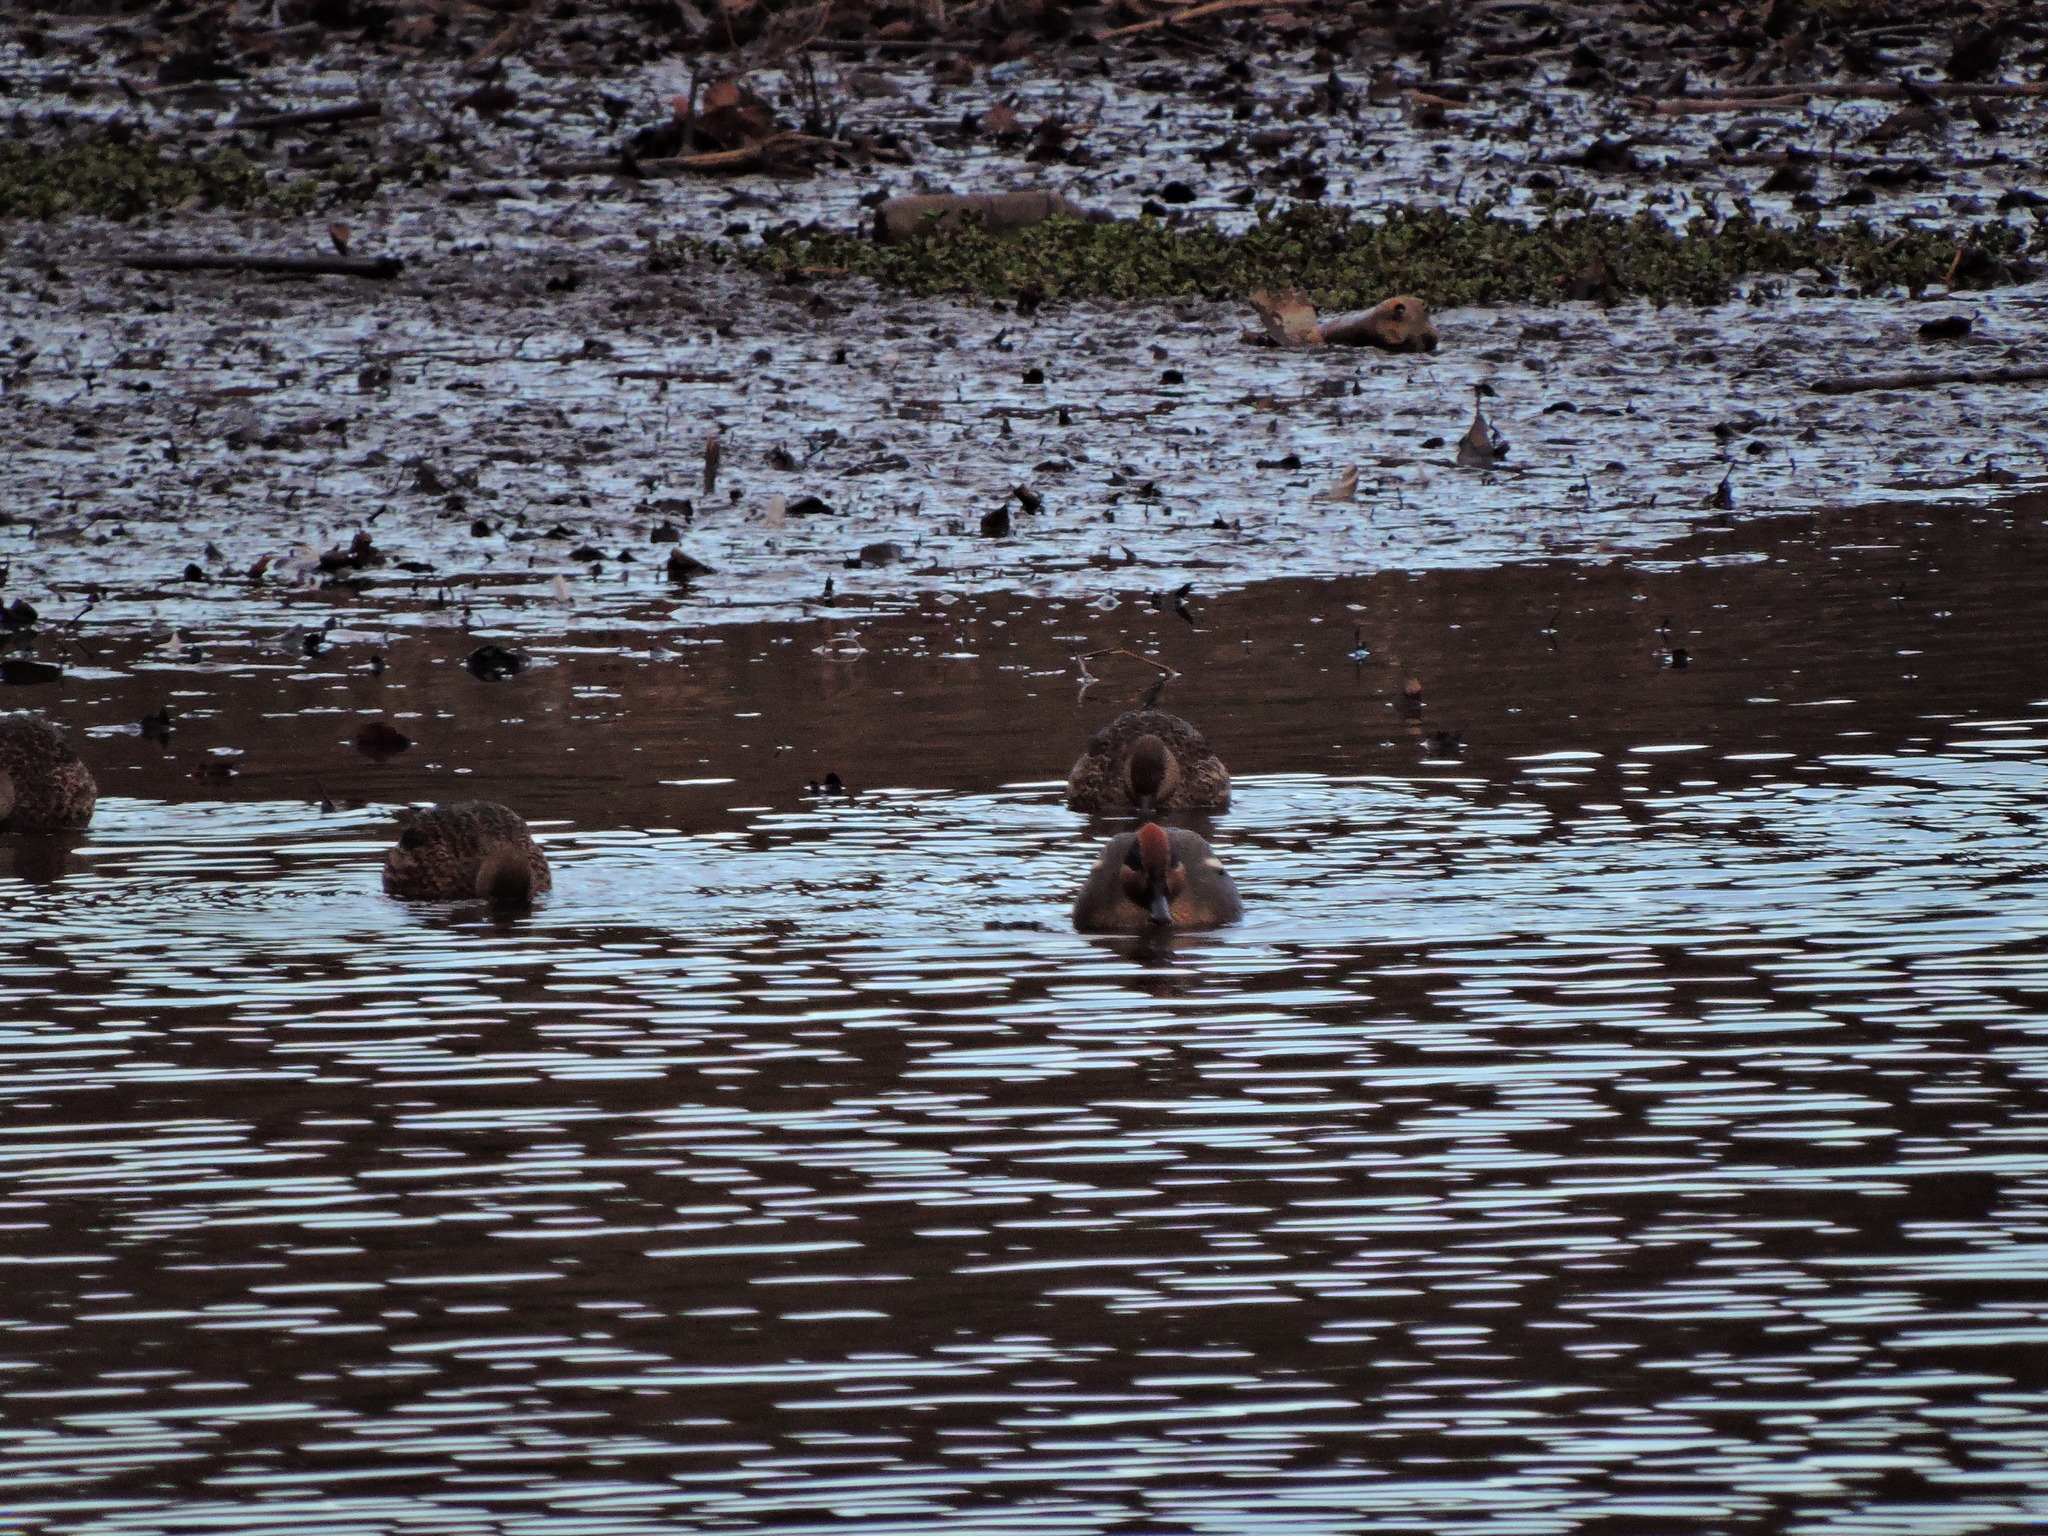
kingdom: Animalia
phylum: Chordata
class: Aves
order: Anseriformes
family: Anatidae
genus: Anas
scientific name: Anas crecca
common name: Eurasian teal
